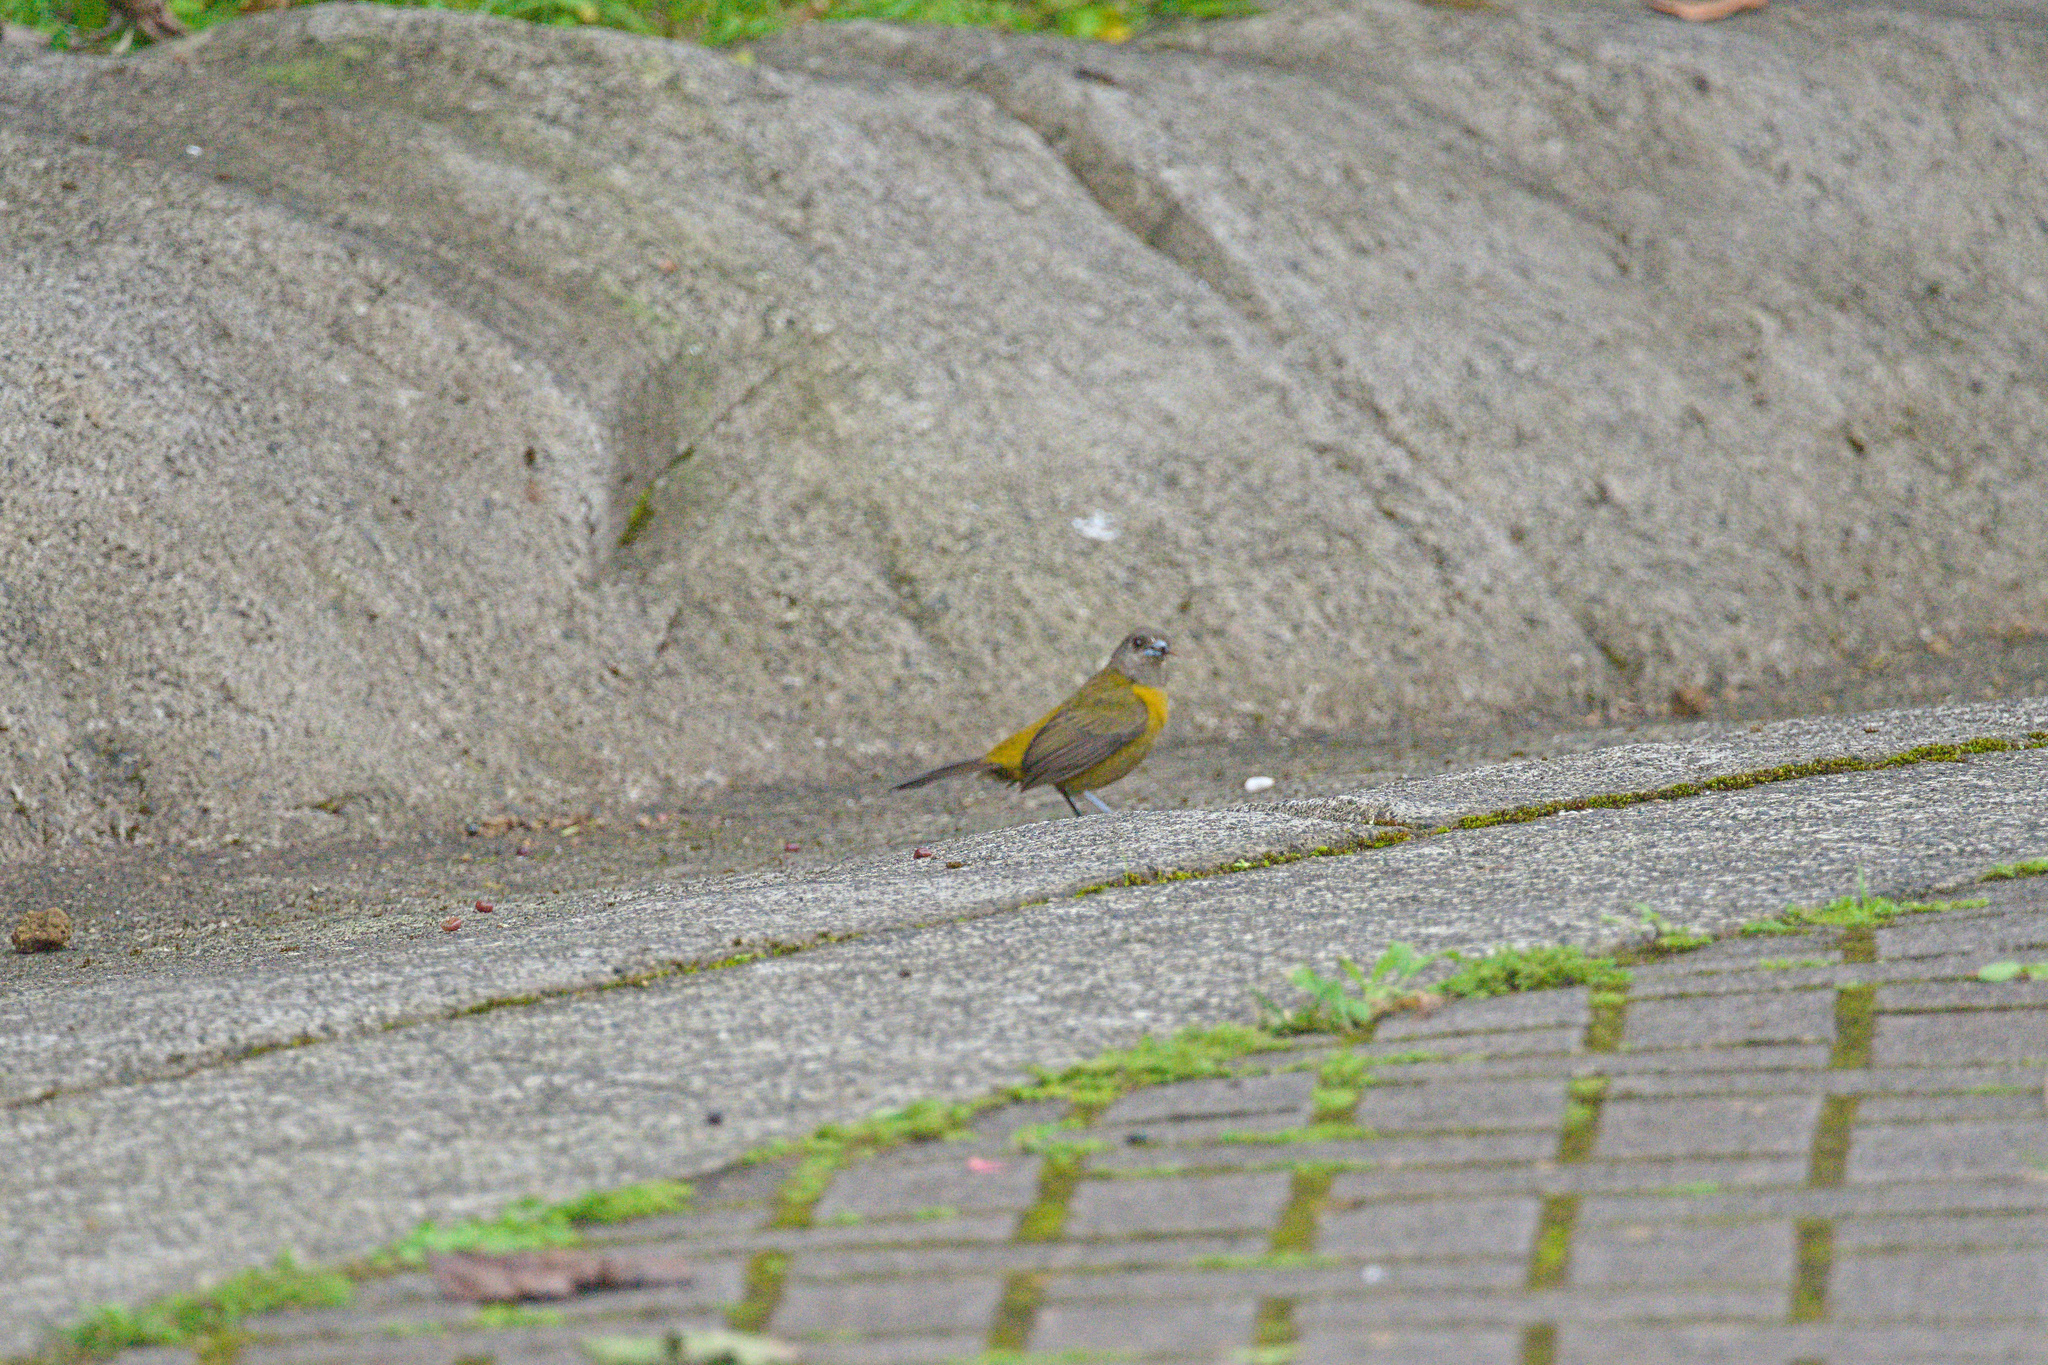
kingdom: Animalia
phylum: Chordata
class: Aves
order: Passeriformes
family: Thraupidae
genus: Ramphocelus
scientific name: Ramphocelus passerinii
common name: Passerini's tanager
